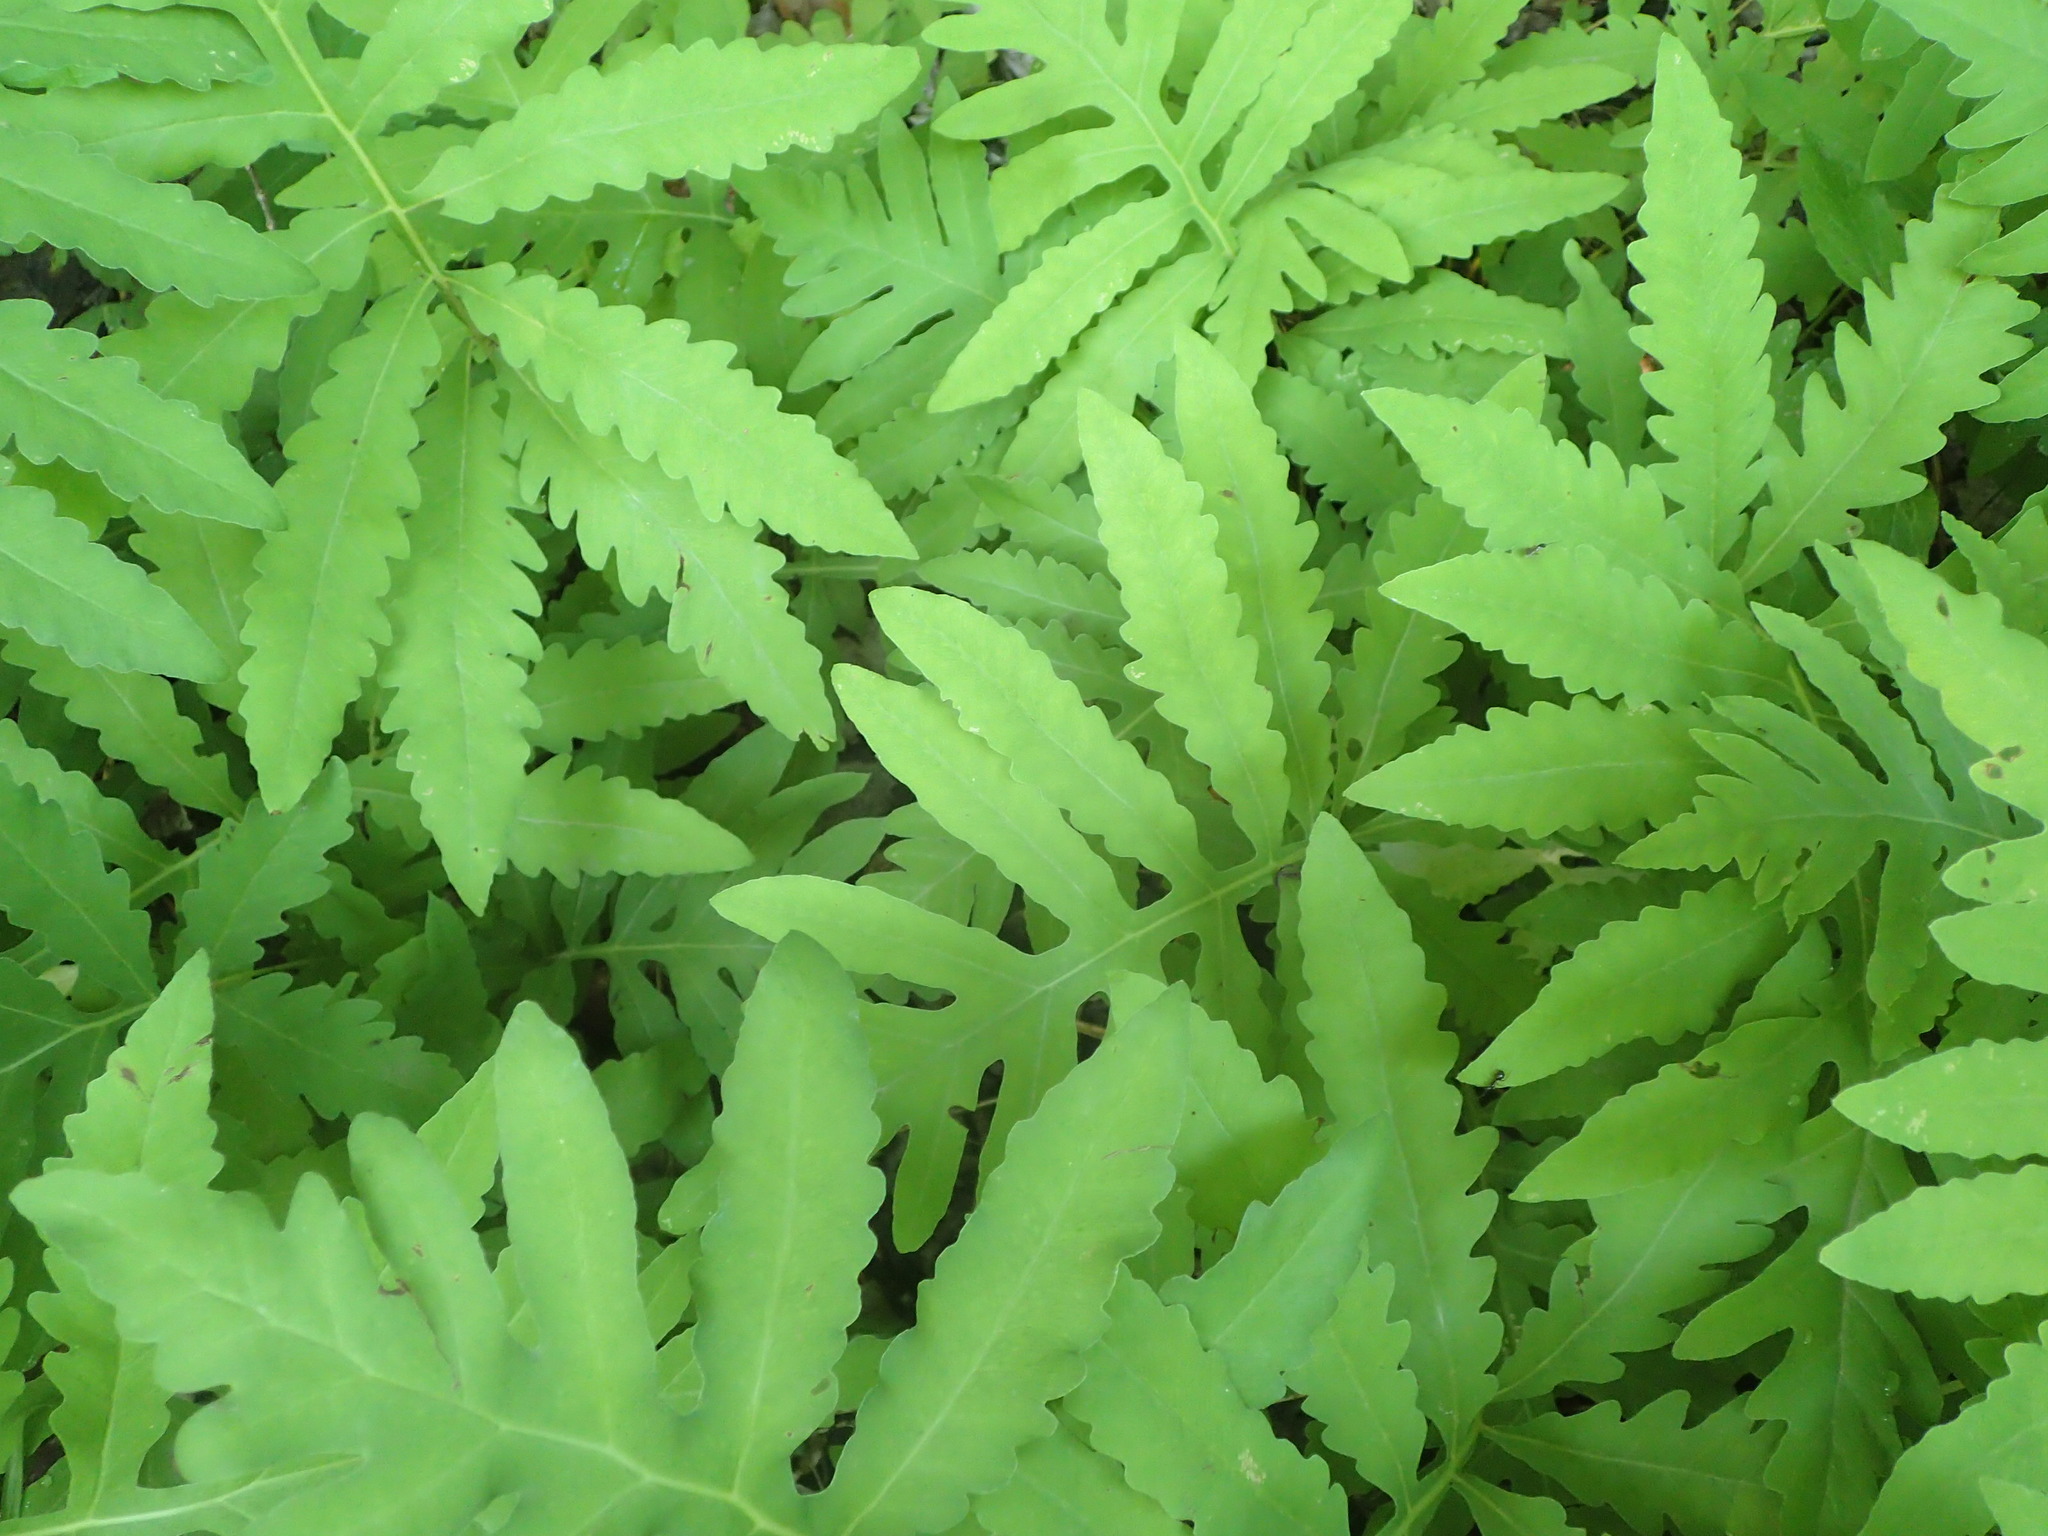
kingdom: Plantae
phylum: Tracheophyta
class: Polypodiopsida
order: Polypodiales
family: Onocleaceae
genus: Onoclea
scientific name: Onoclea sensibilis
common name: Sensitive fern
